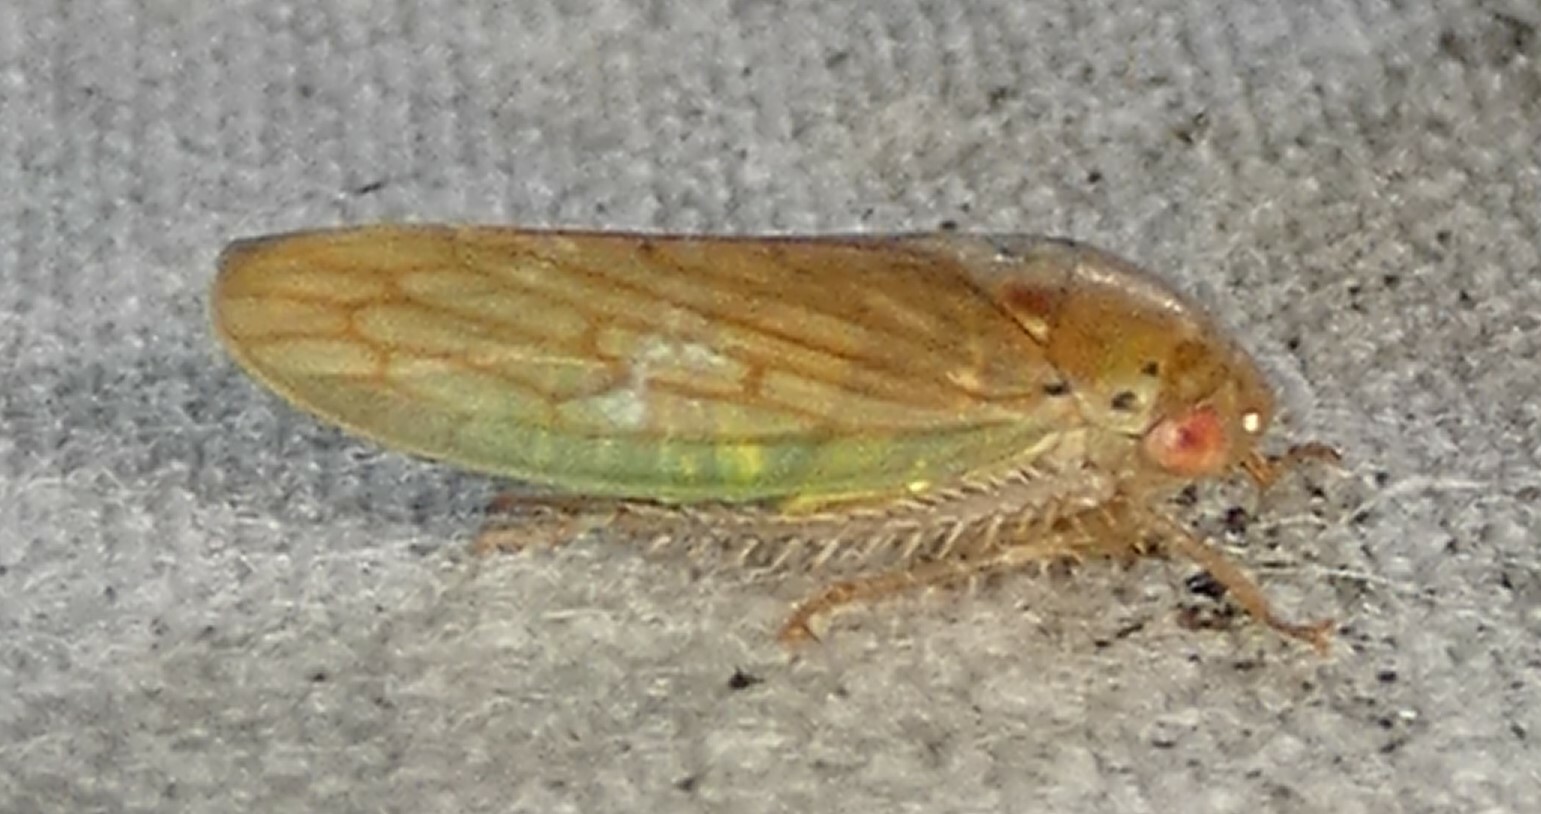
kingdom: Animalia
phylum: Arthropoda
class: Insecta
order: Hemiptera
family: Cicadellidae
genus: Polana
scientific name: Polana quadrinotata
